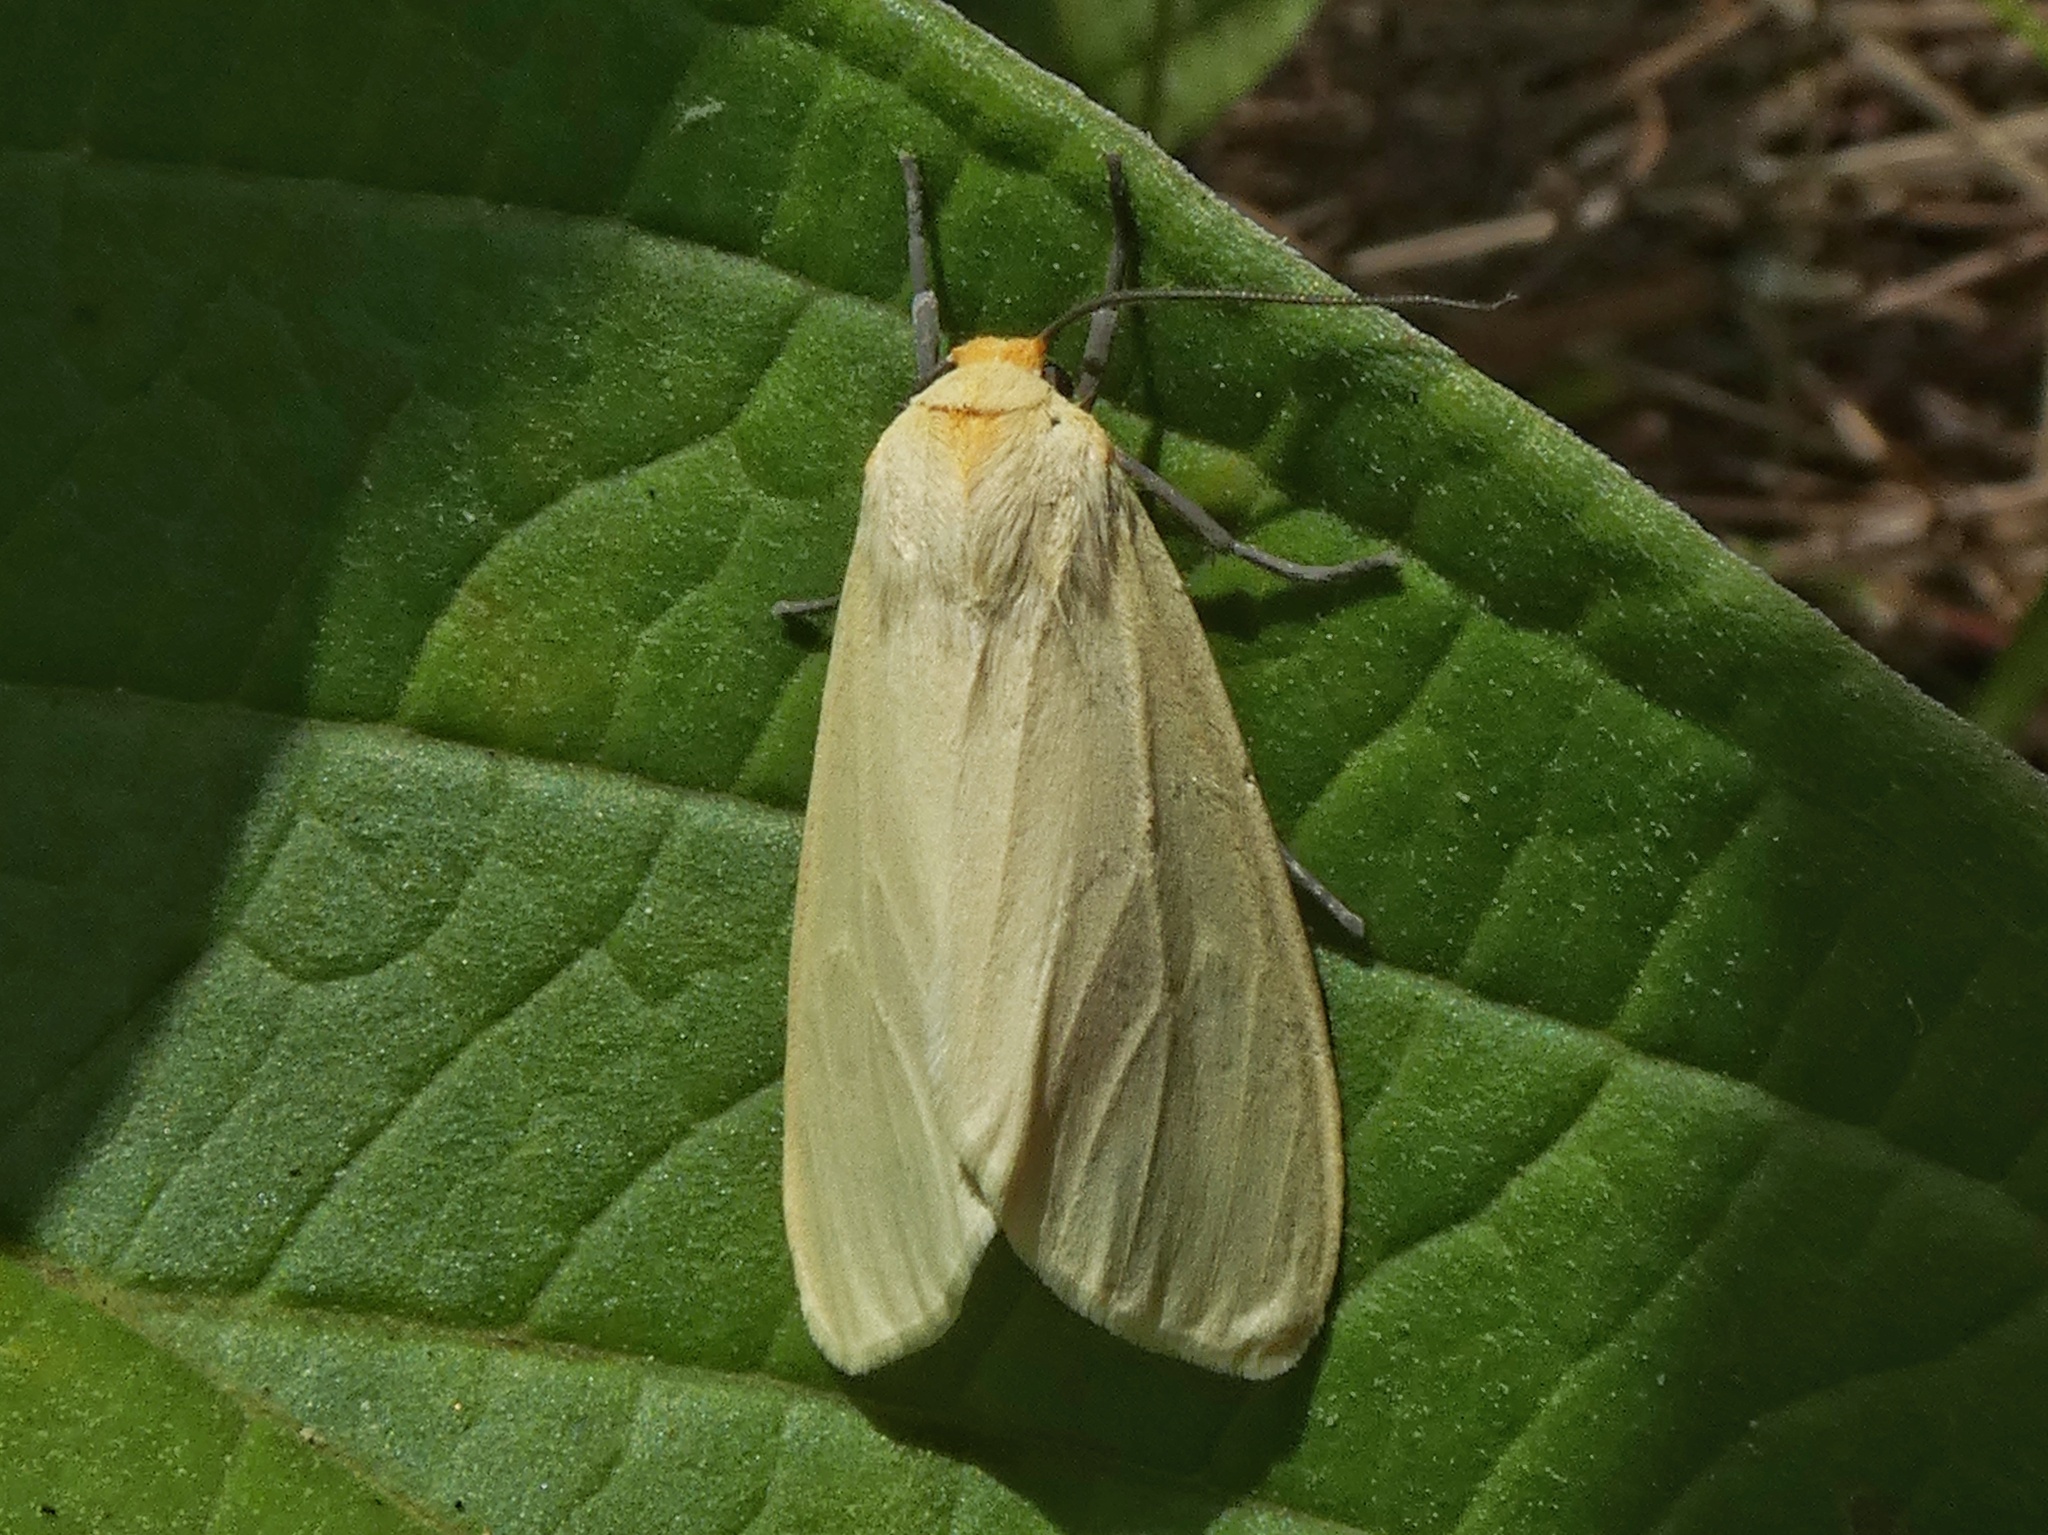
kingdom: Animalia
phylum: Arthropoda
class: Insecta
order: Lepidoptera
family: Erebidae
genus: Pareuchaetes
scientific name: Pareuchaetes pseudoinsulata
